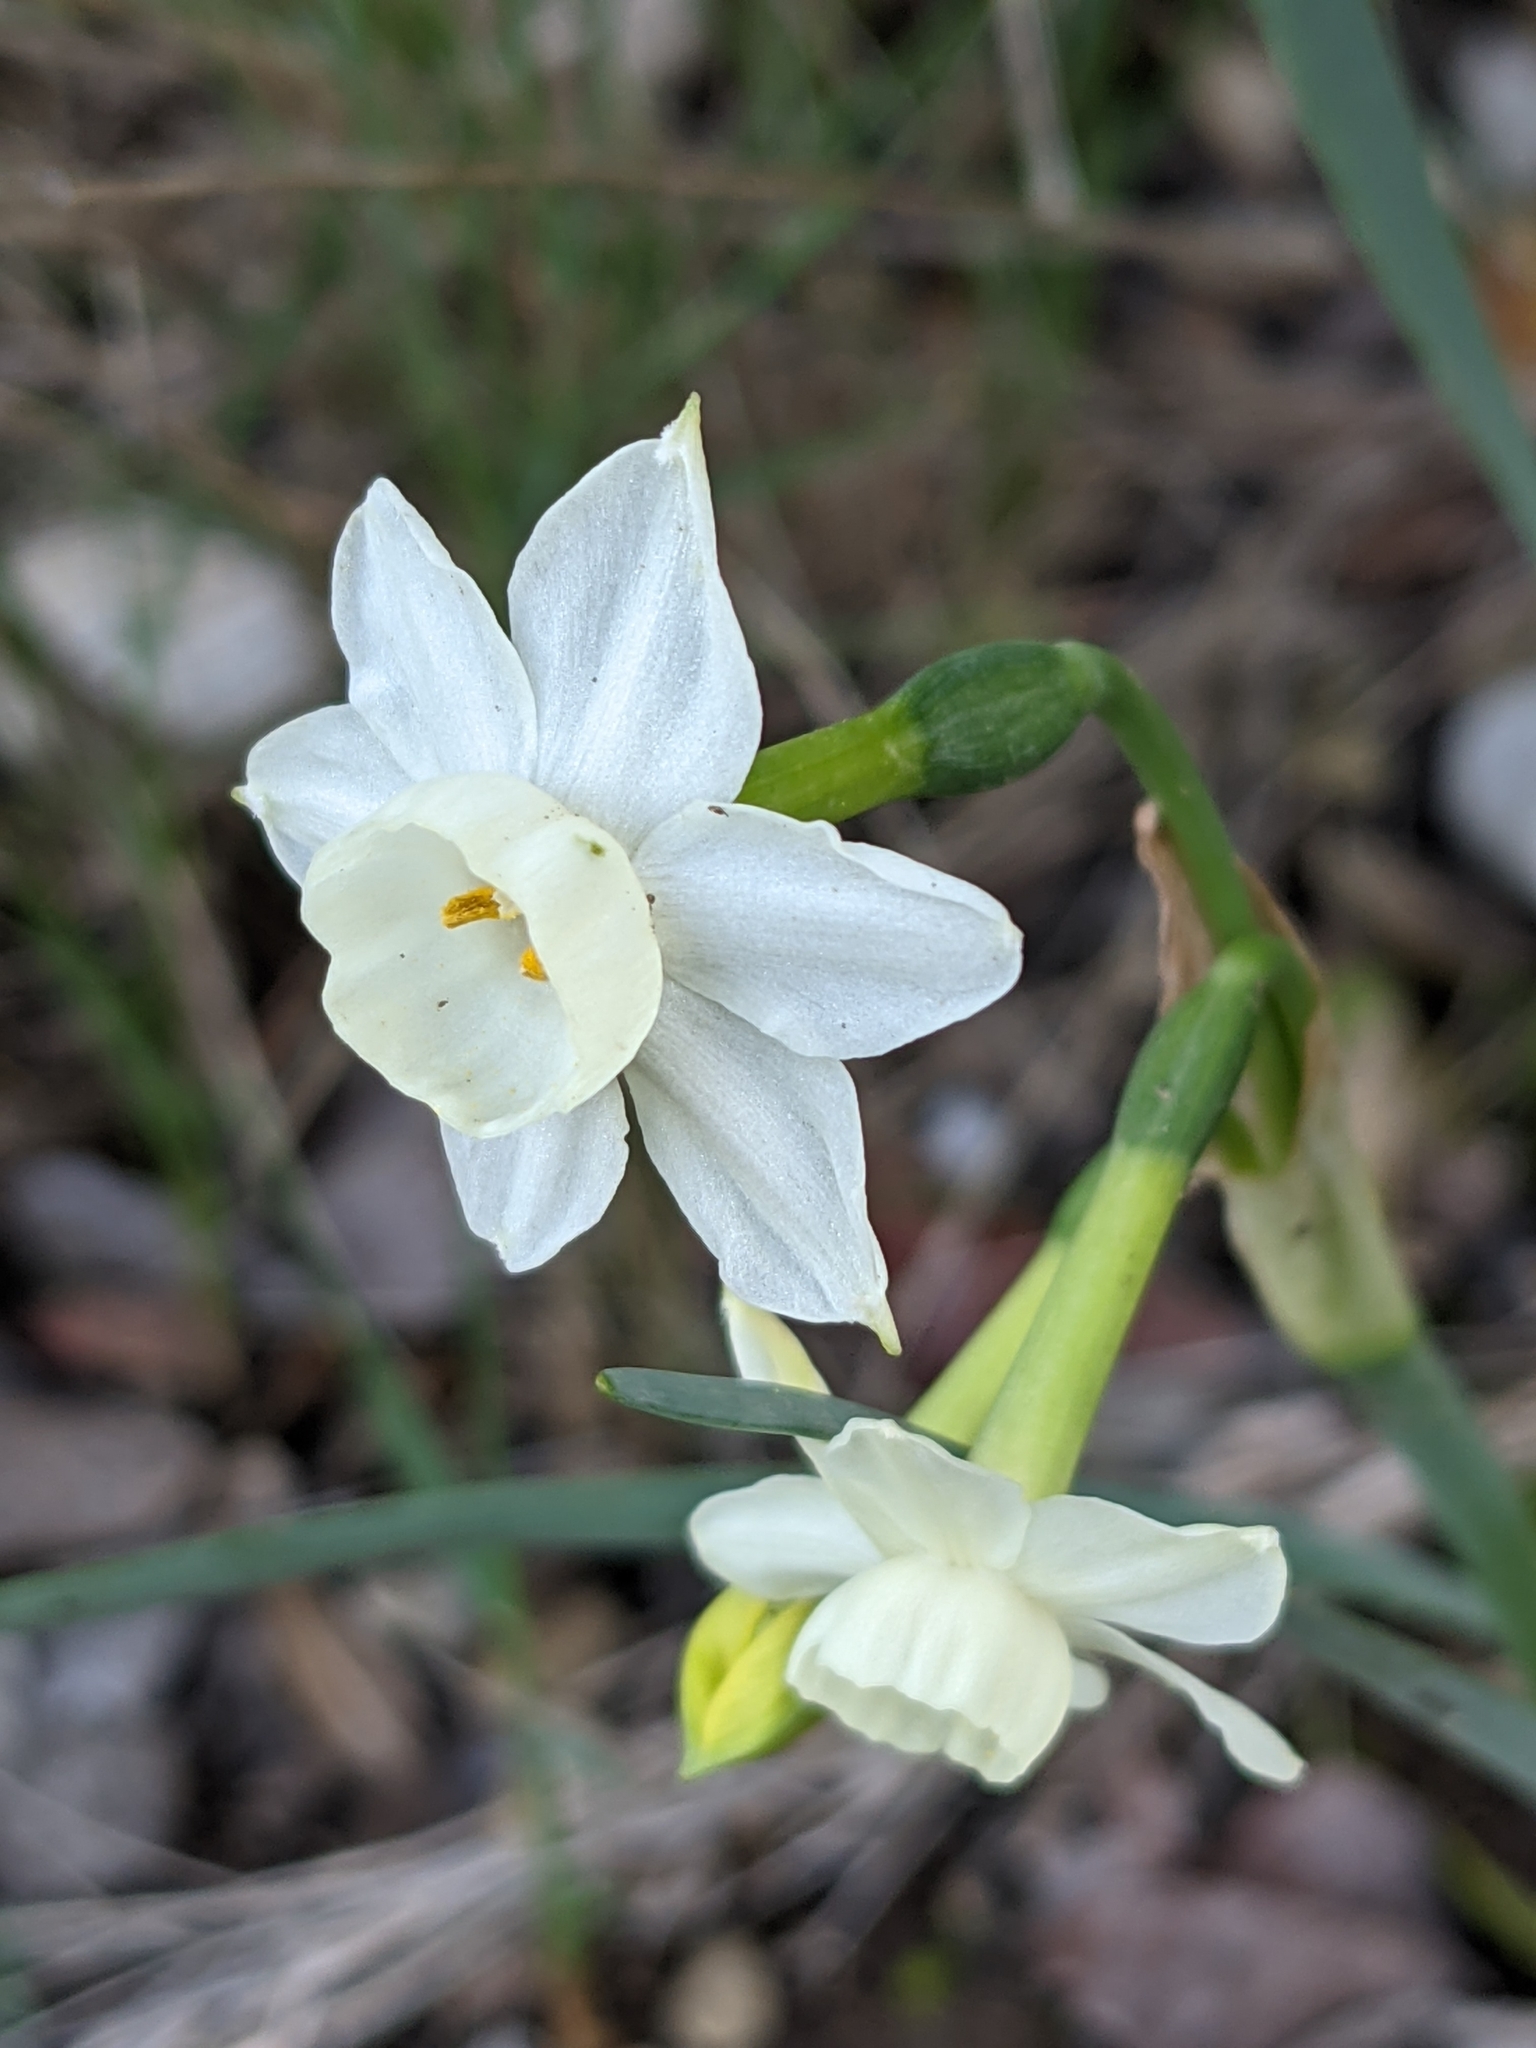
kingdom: Plantae
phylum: Tracheophyta
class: Liliopsida
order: Asparagales
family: Amaryllidaceae
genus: Narcissus
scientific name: Narcissus dubius
